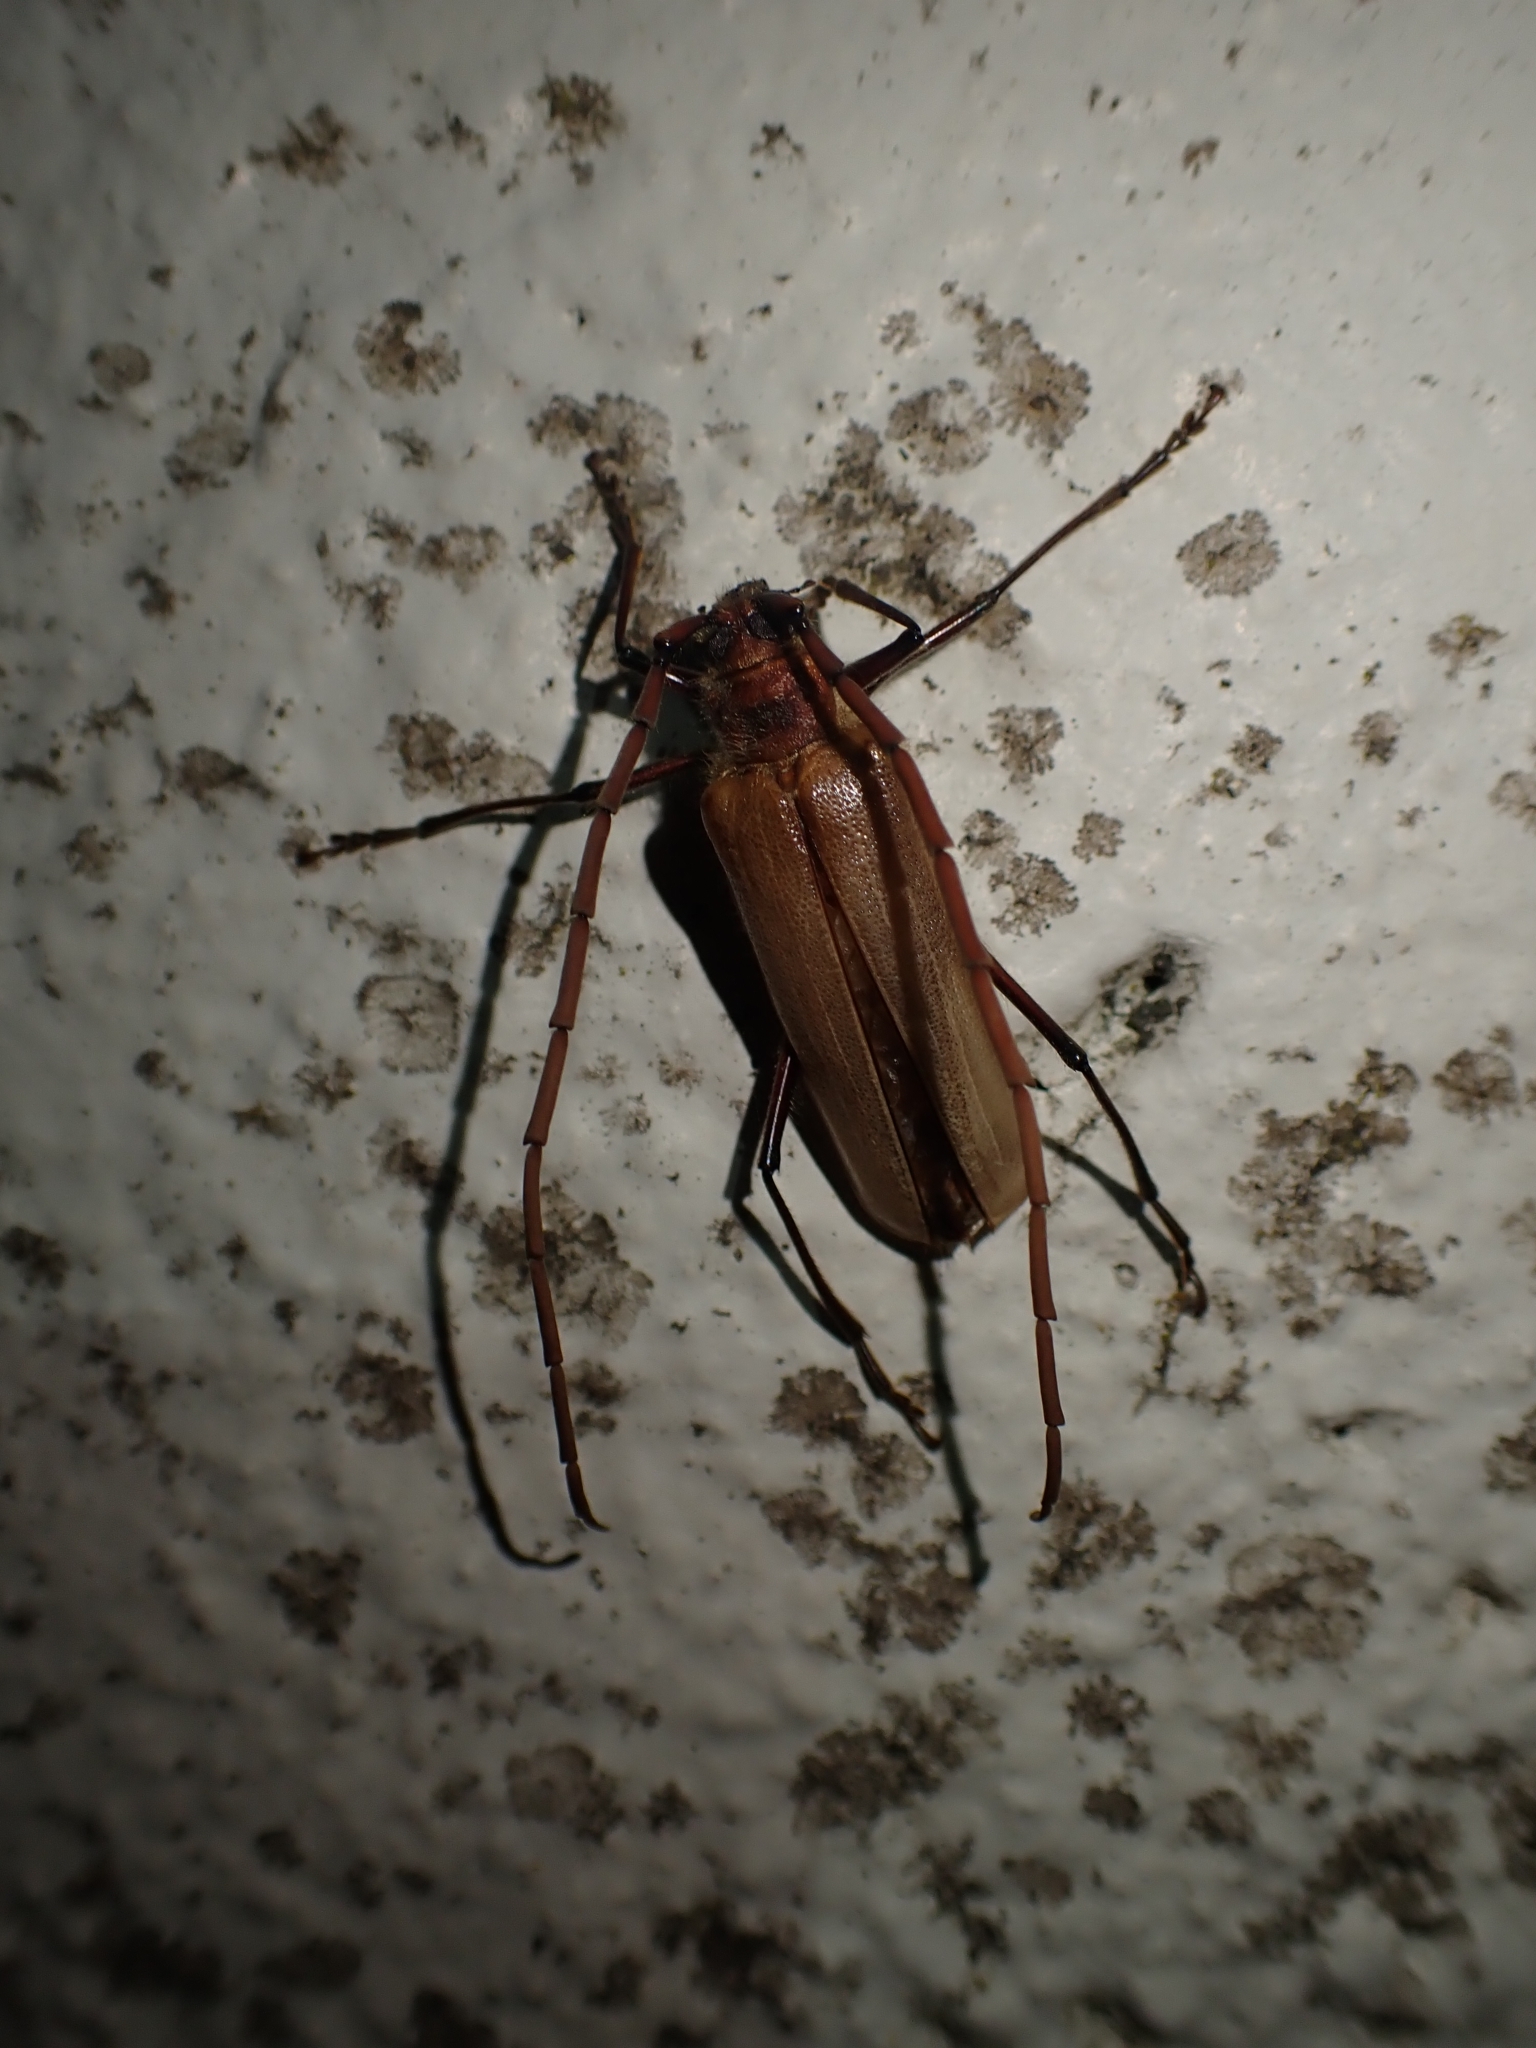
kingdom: Animalia
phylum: Arthropoda
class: Insecta
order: Coleoptera
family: Cerambycidae
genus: Ochrocydus
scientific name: Ochrocydus huttoni
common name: Kanuka longhorn
